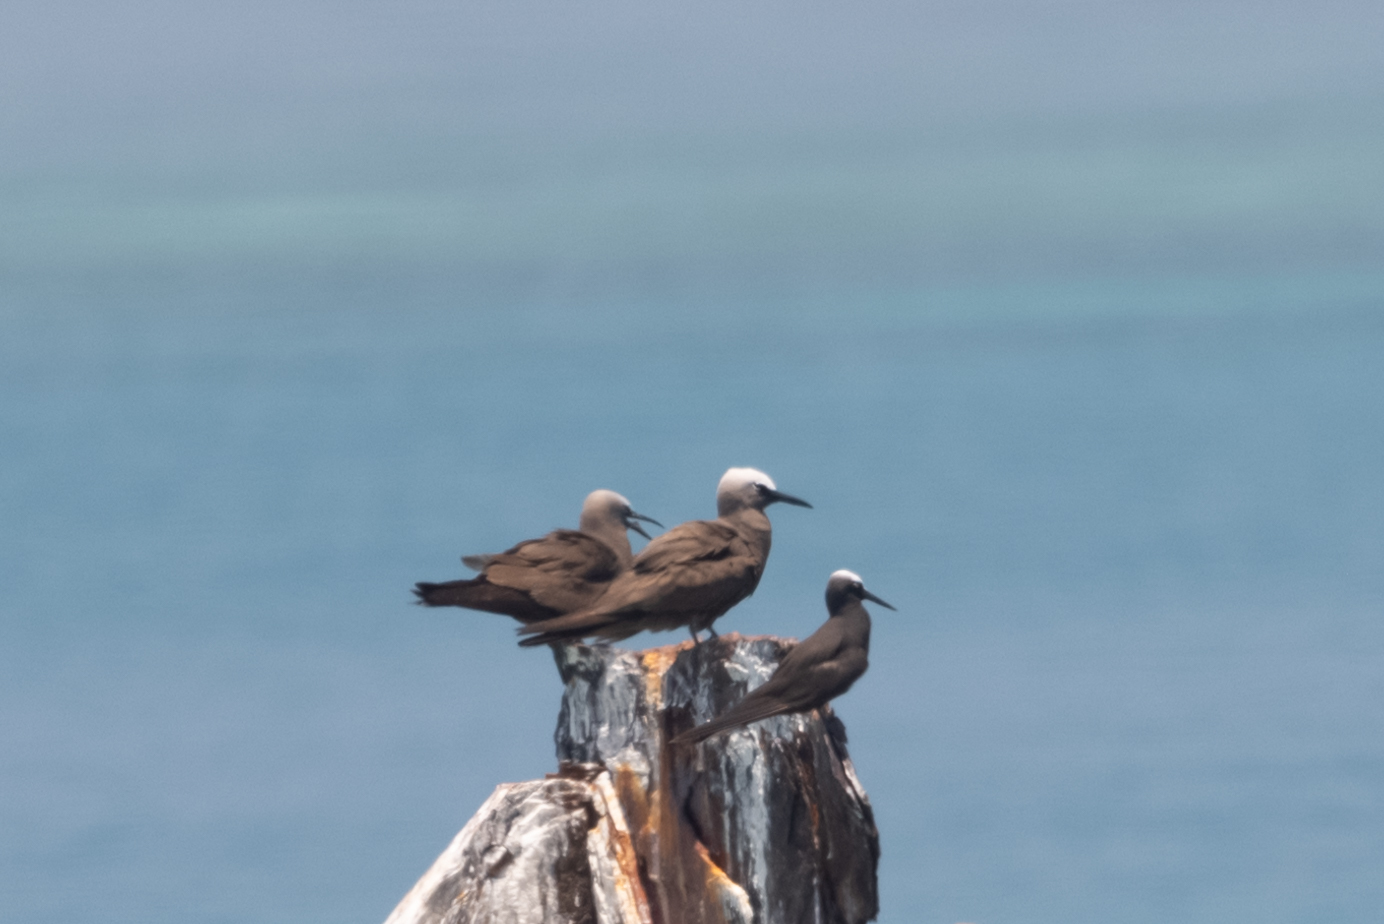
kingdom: Animalia
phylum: Chordata
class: Aves
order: Charadriiformes
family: Laridae
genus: Anous
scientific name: Anous minutus
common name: Black noddy
